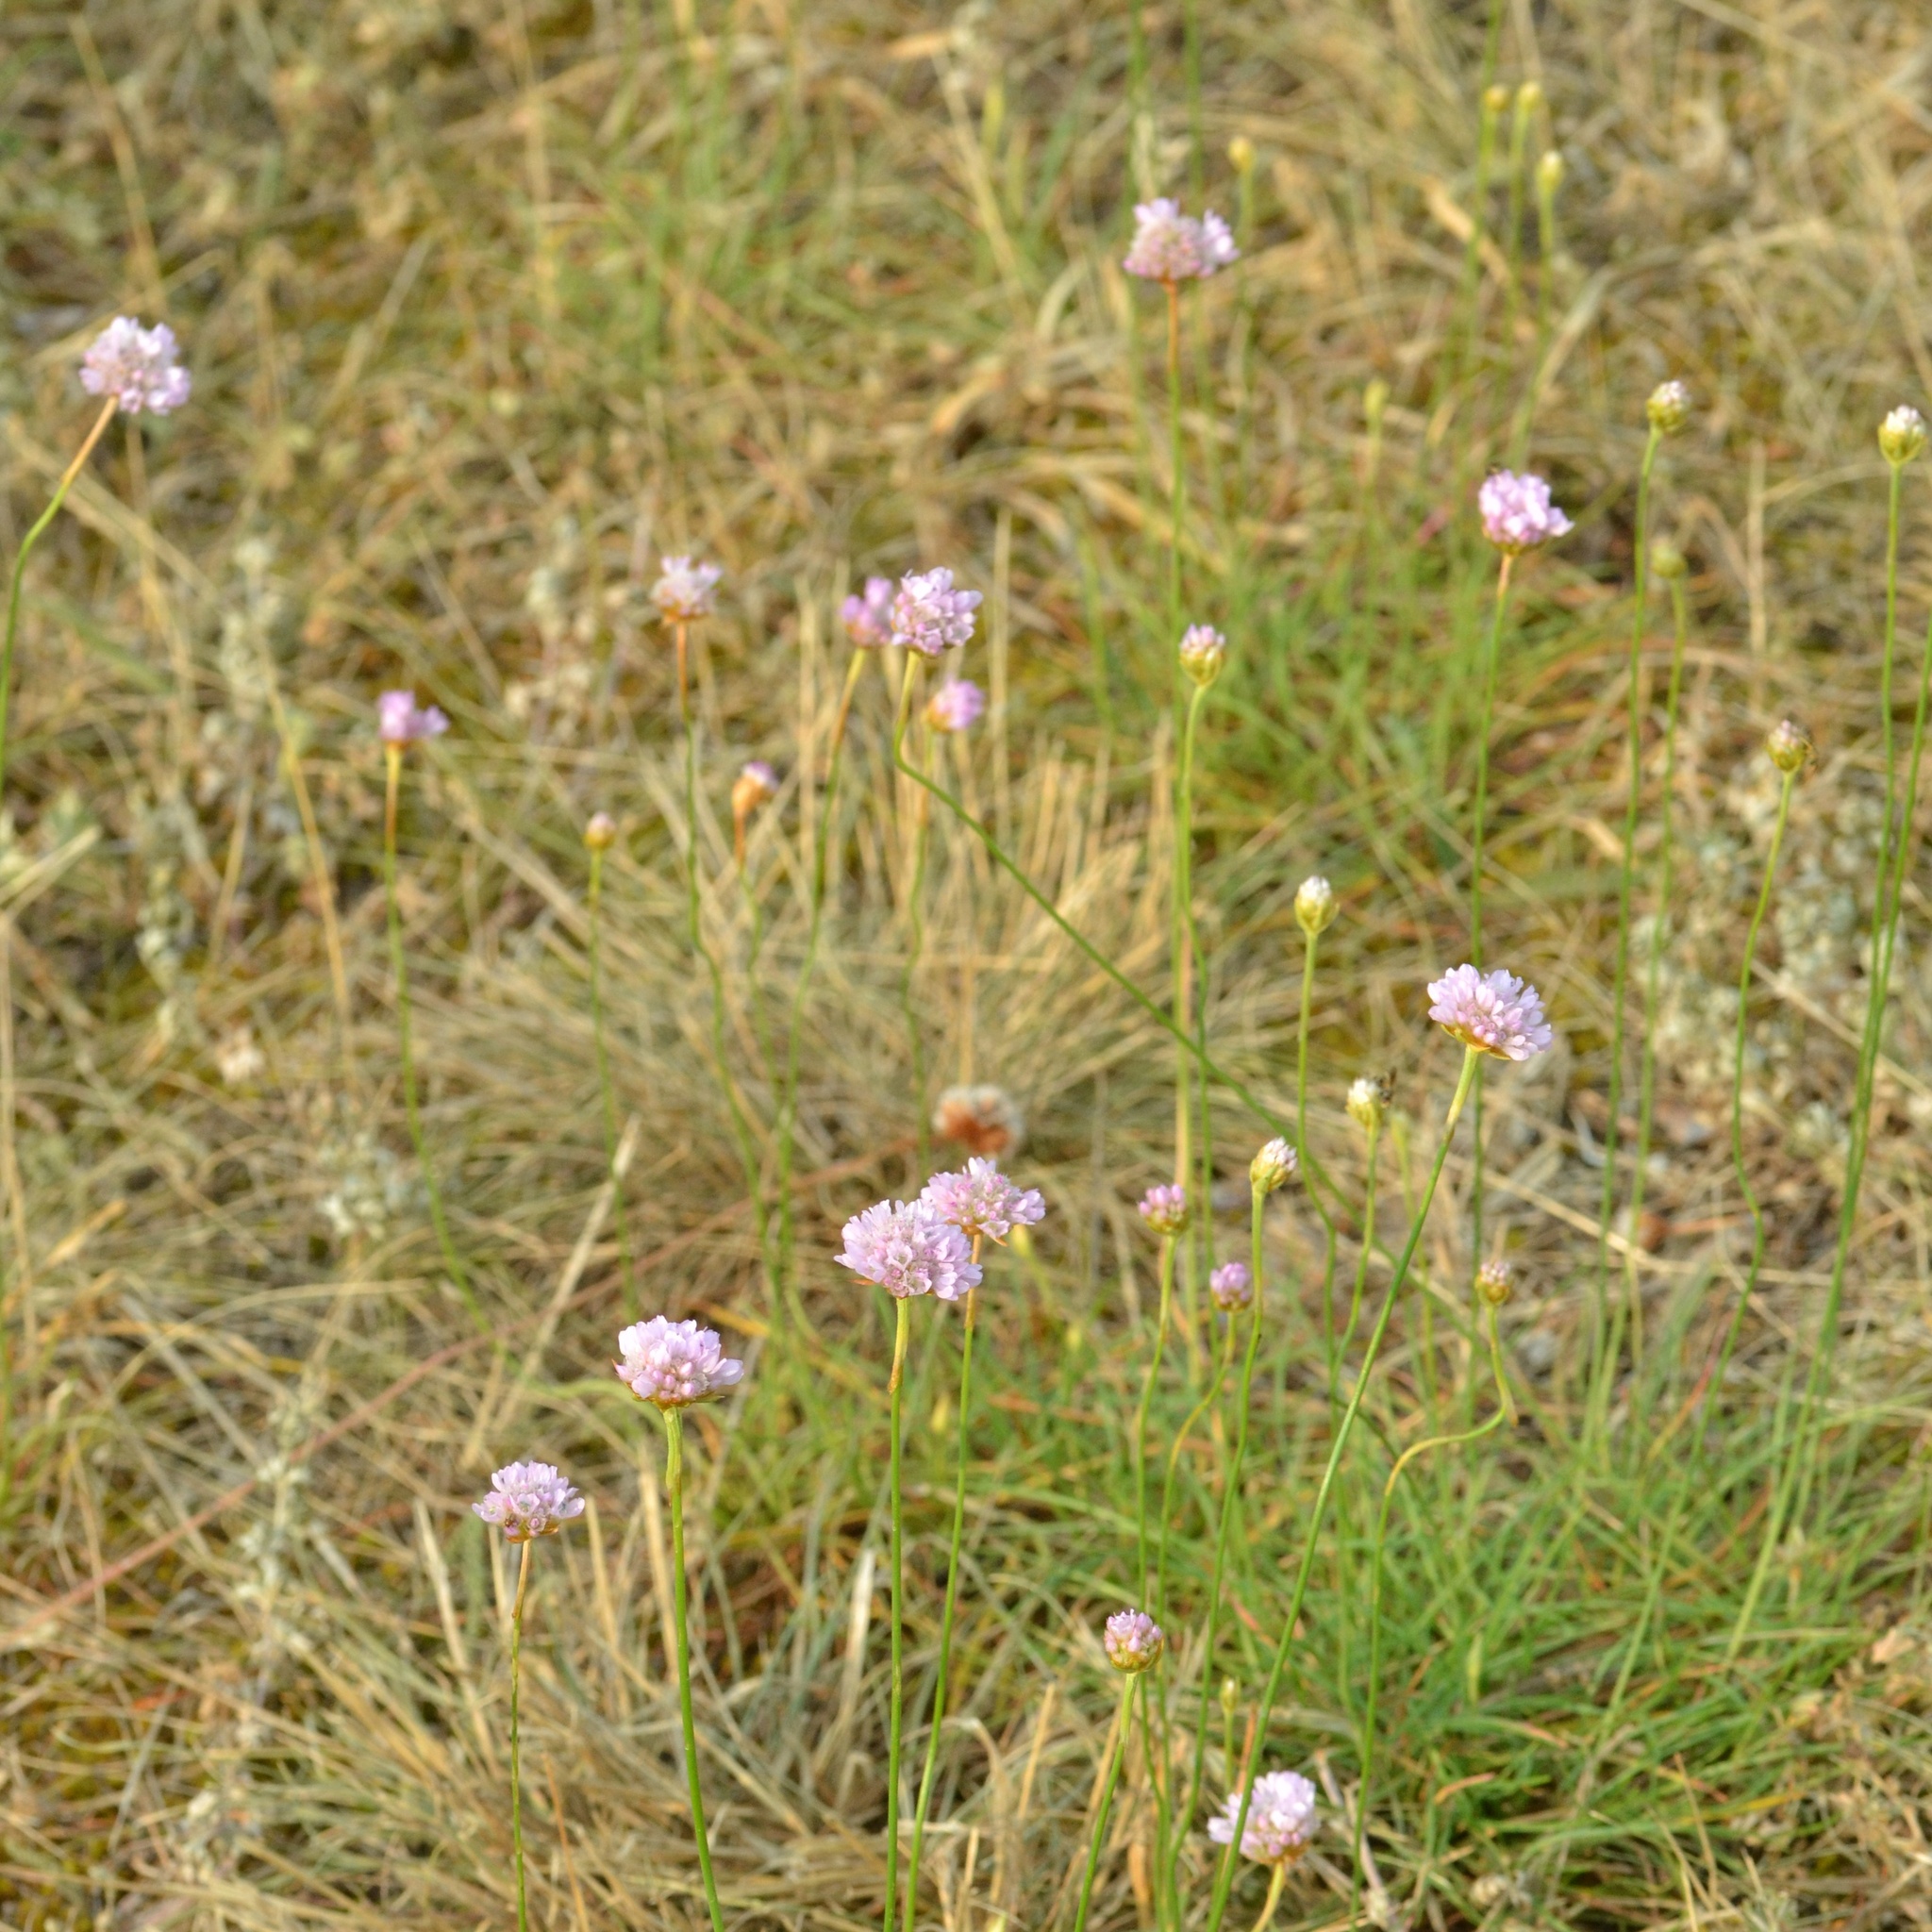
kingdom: Plantae
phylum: Tracheophyta
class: Magnoliopsida
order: Caryophyllales
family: Plumbaginaceae
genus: Armeria
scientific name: Armeria maritima
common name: Thrift
